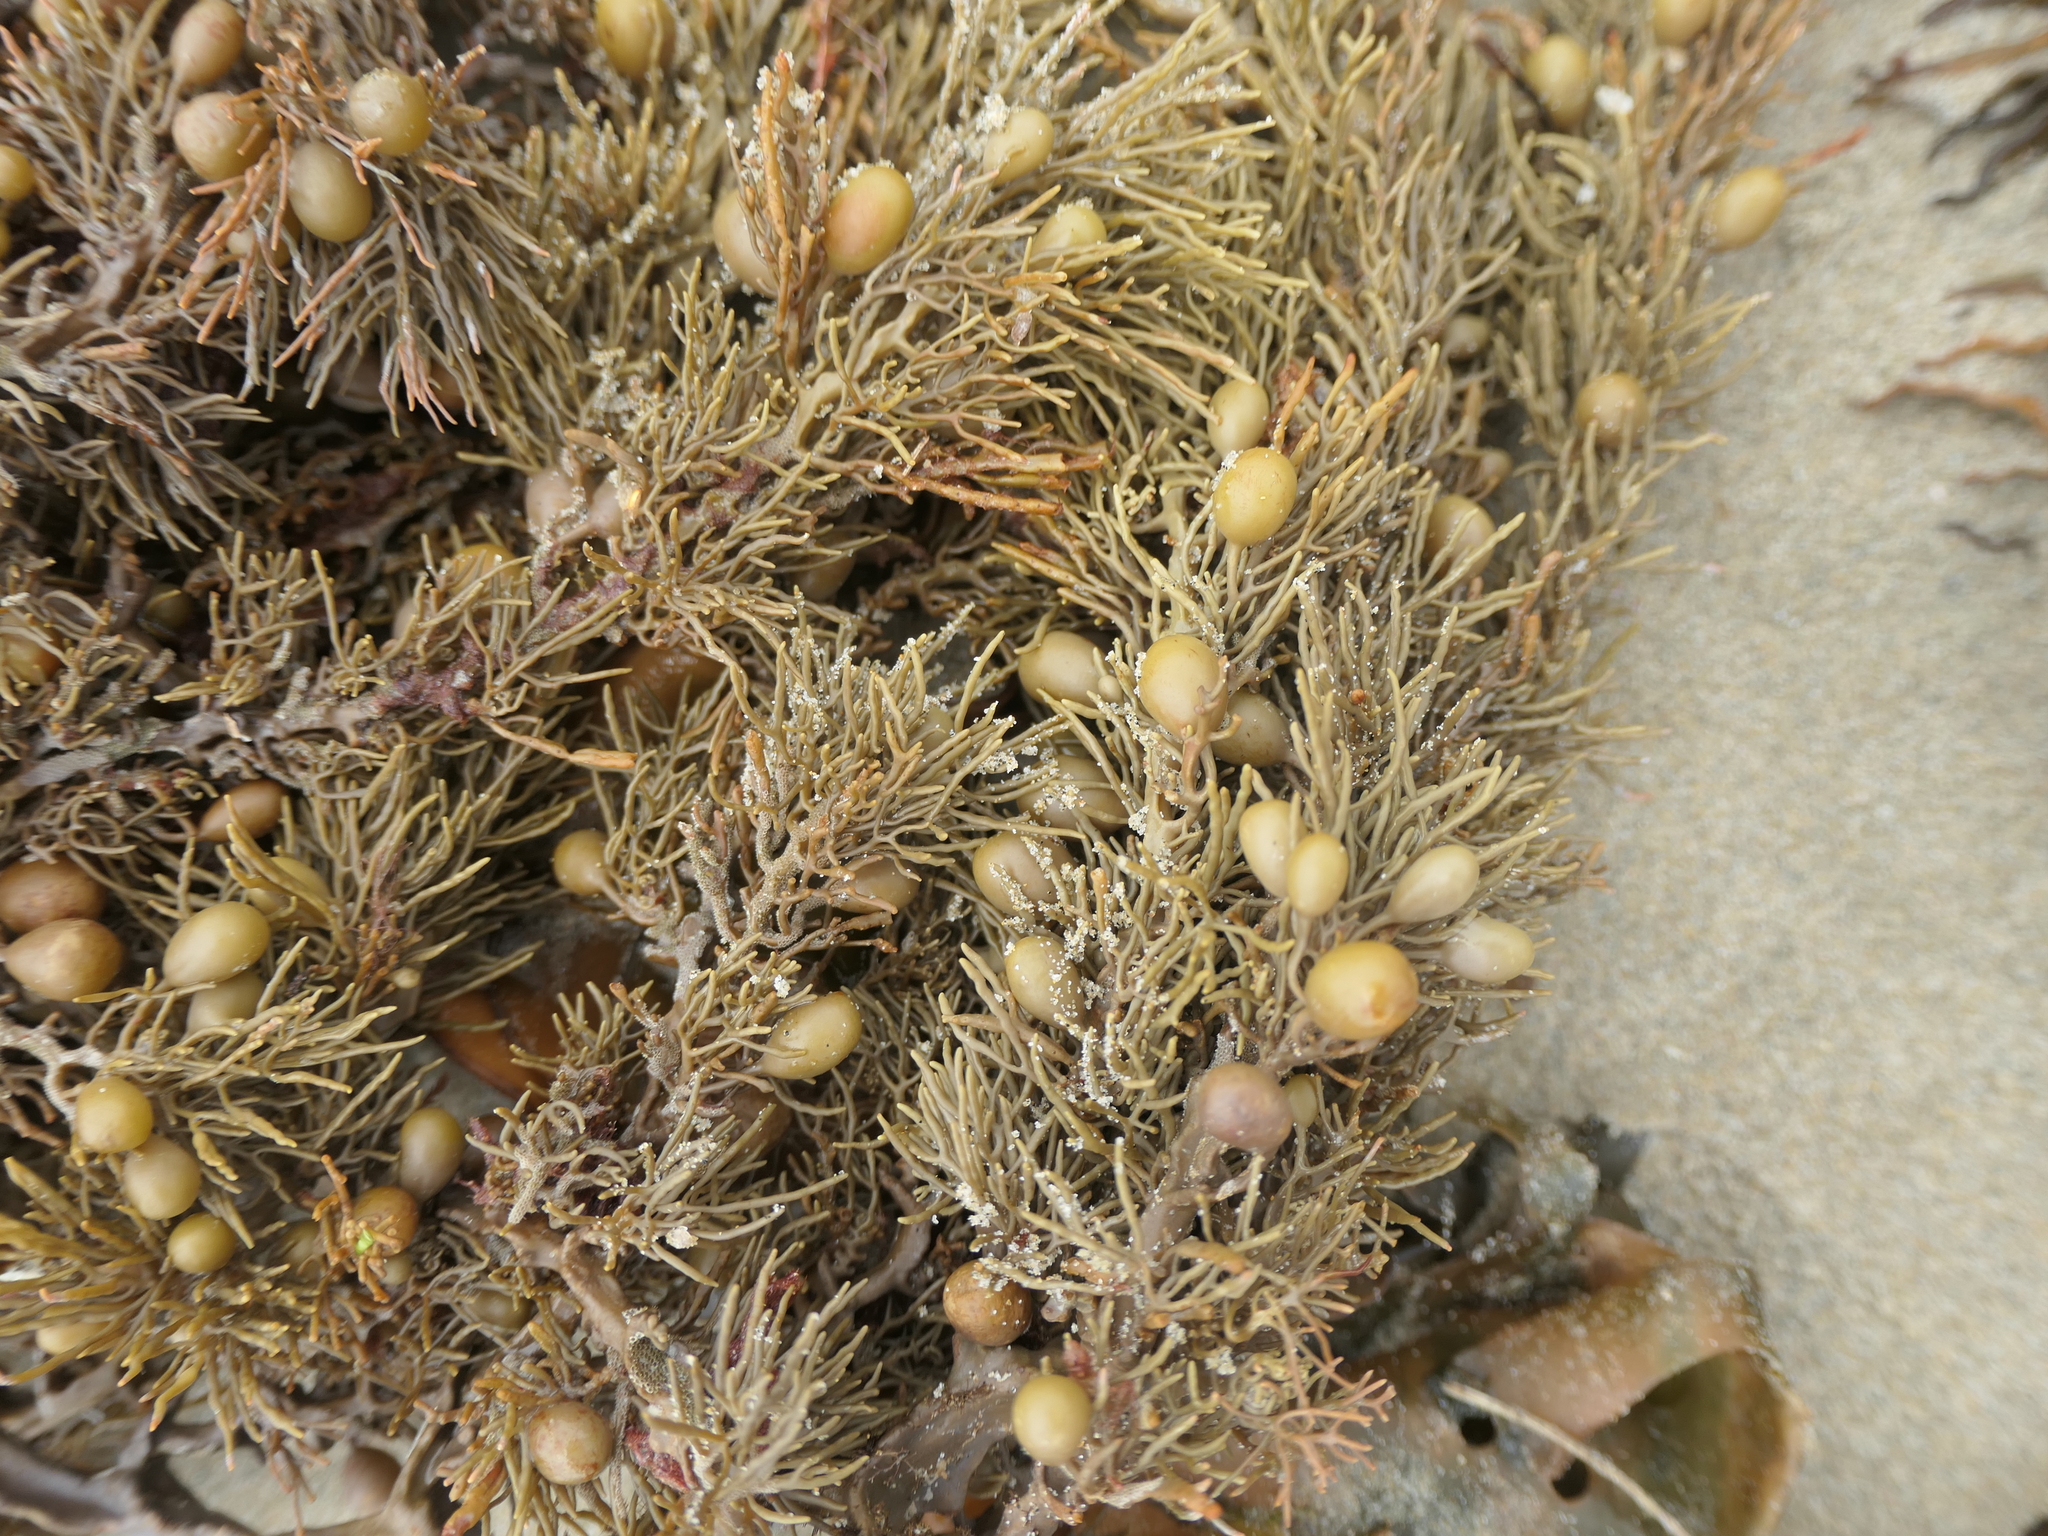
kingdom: Chromista
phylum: Ochrophyta
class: Phaeophyceae
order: Fucales
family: Sargassaceae
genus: Cystophora
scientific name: Cystophora retroflexa
